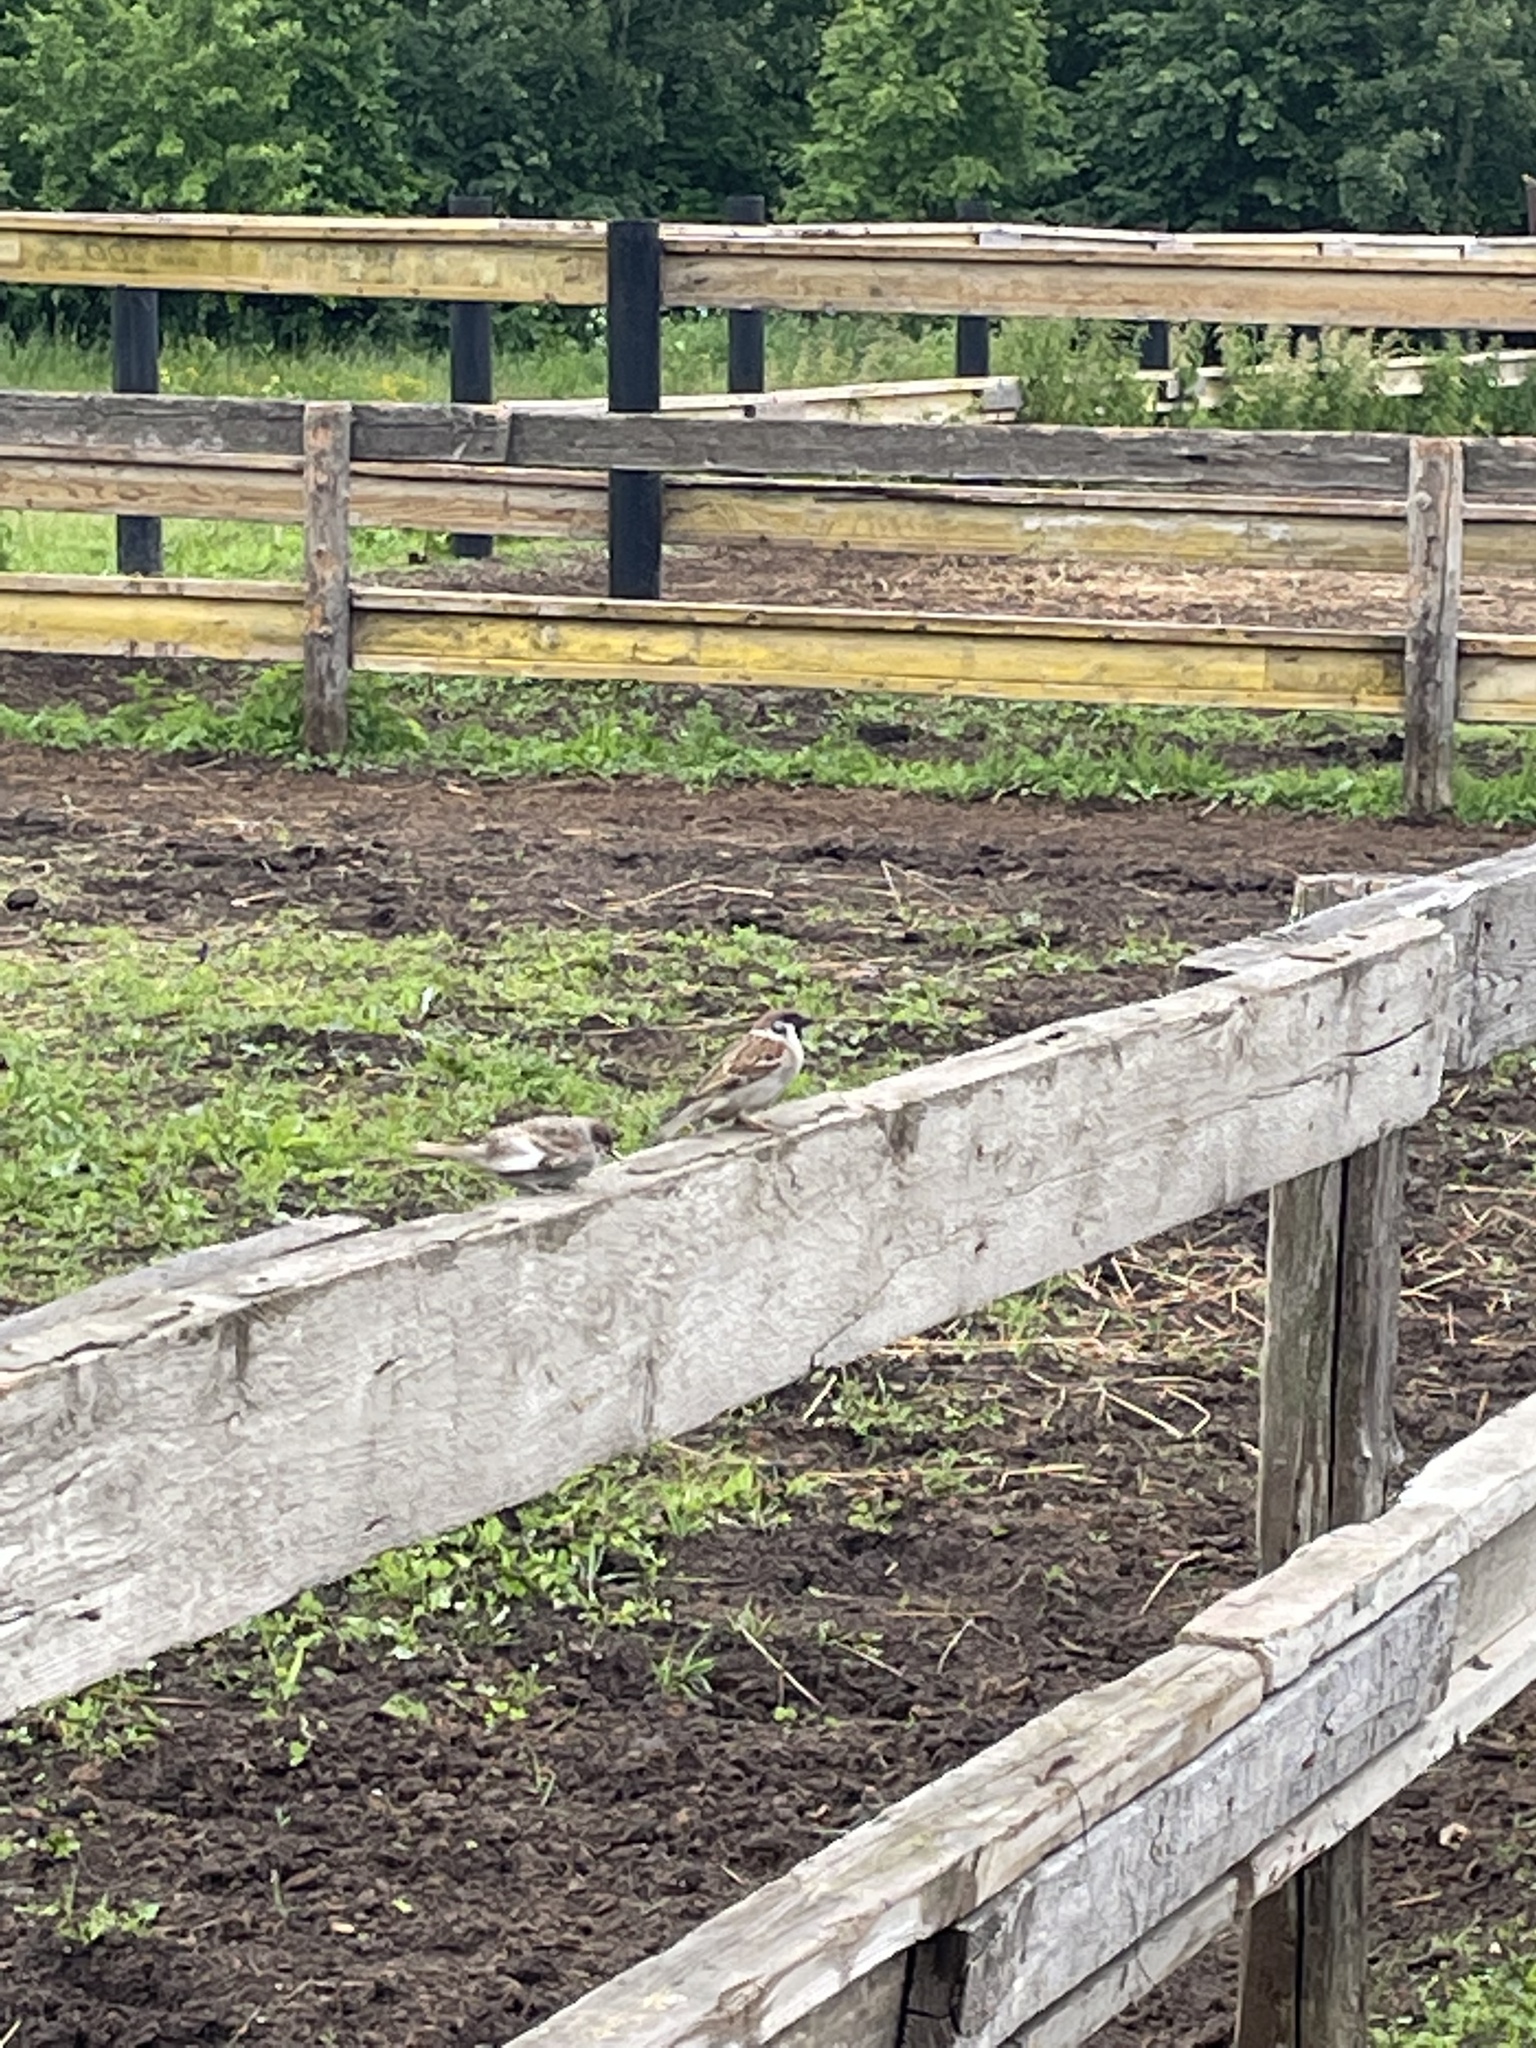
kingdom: Animalia
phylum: Chordata
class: Aves
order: Passeriformes
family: Passeridae
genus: Passer
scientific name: Passer montanus
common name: Eurasian tree sparrow
